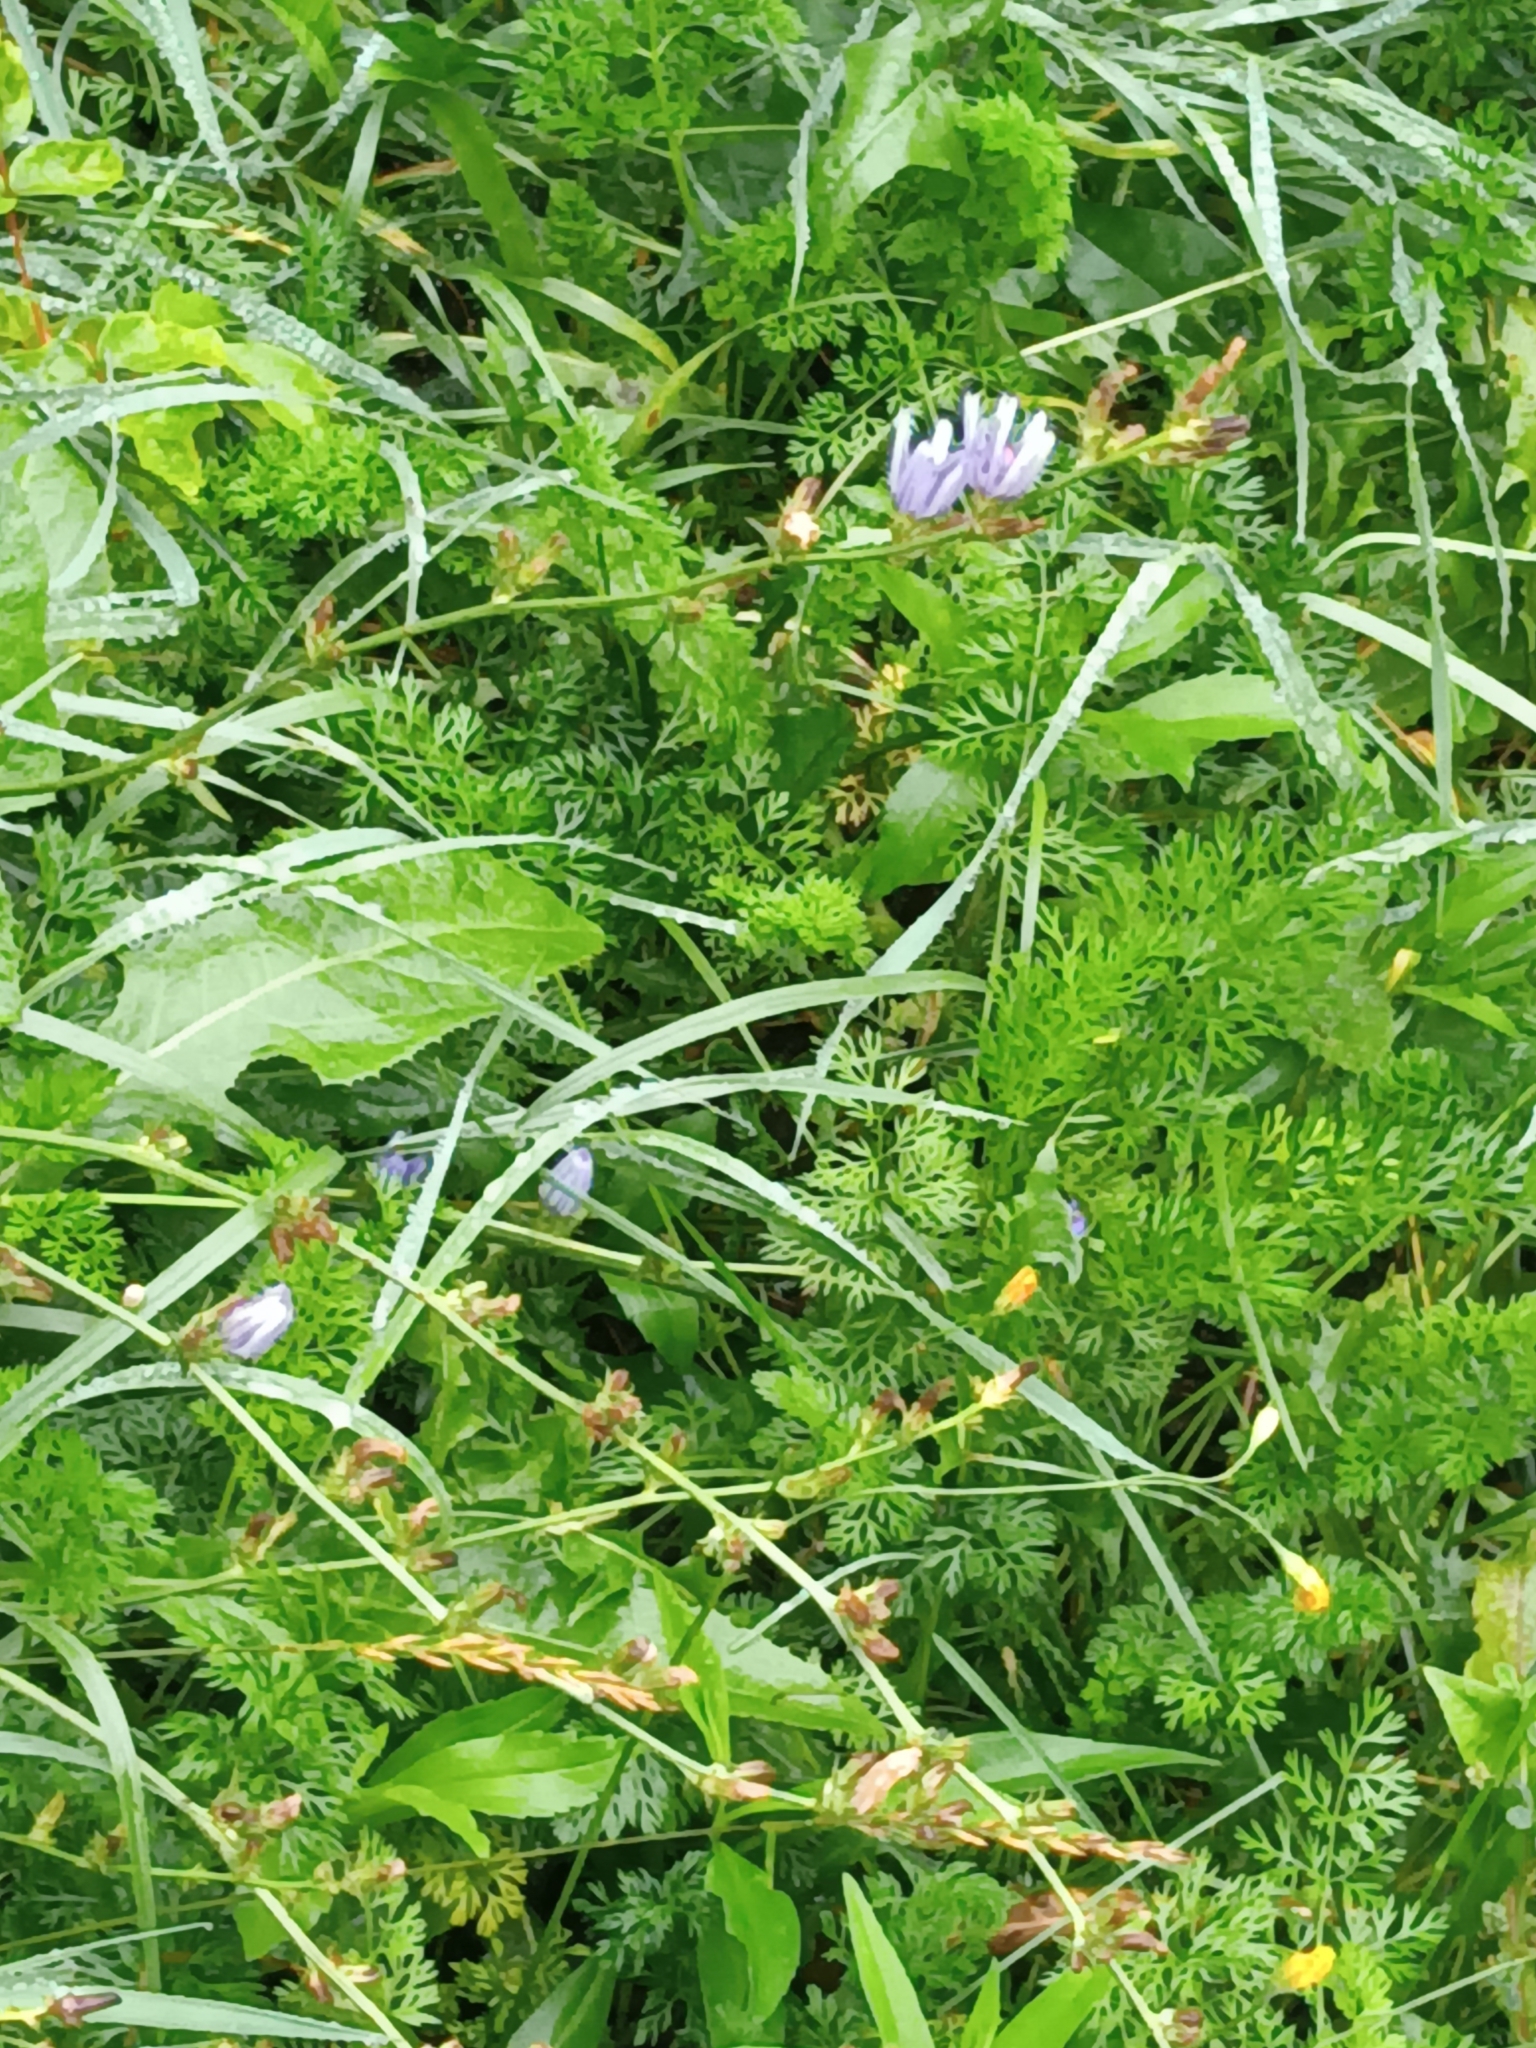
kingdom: Plantae
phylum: Tracheophyta
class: Magnoliopsida
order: Asterales
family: Asteraceae
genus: Cichorium
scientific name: Cichorium intybus
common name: Chicory
